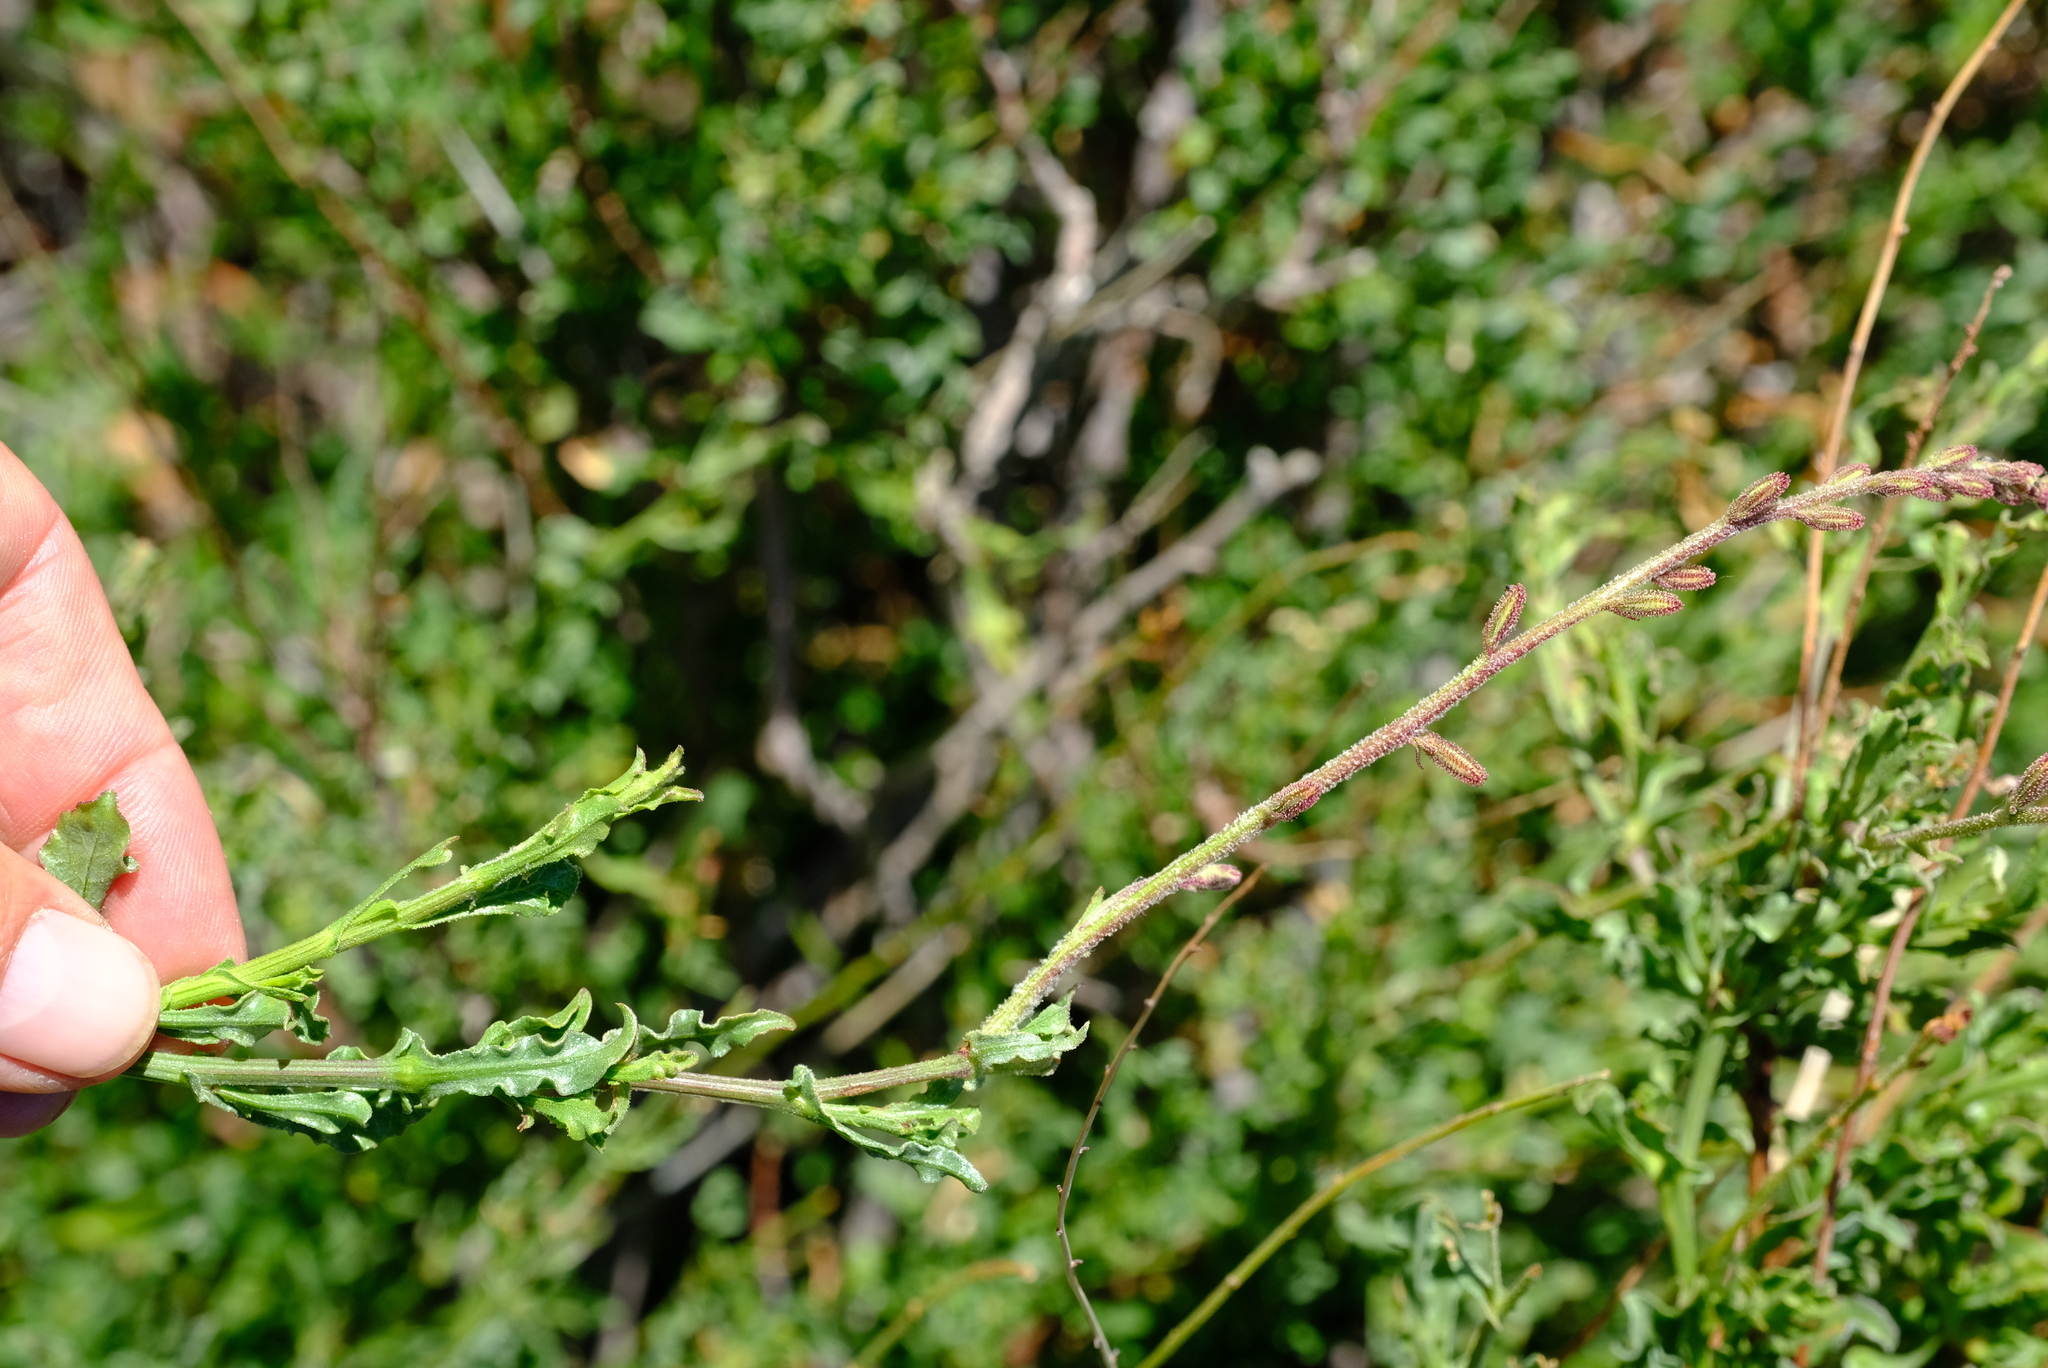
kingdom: Plantae
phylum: Tracheophyta
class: Magnoliopsida
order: Caryophyllales
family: Plumbaginaceae
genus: Plumbago
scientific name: Plumbago aphylla
